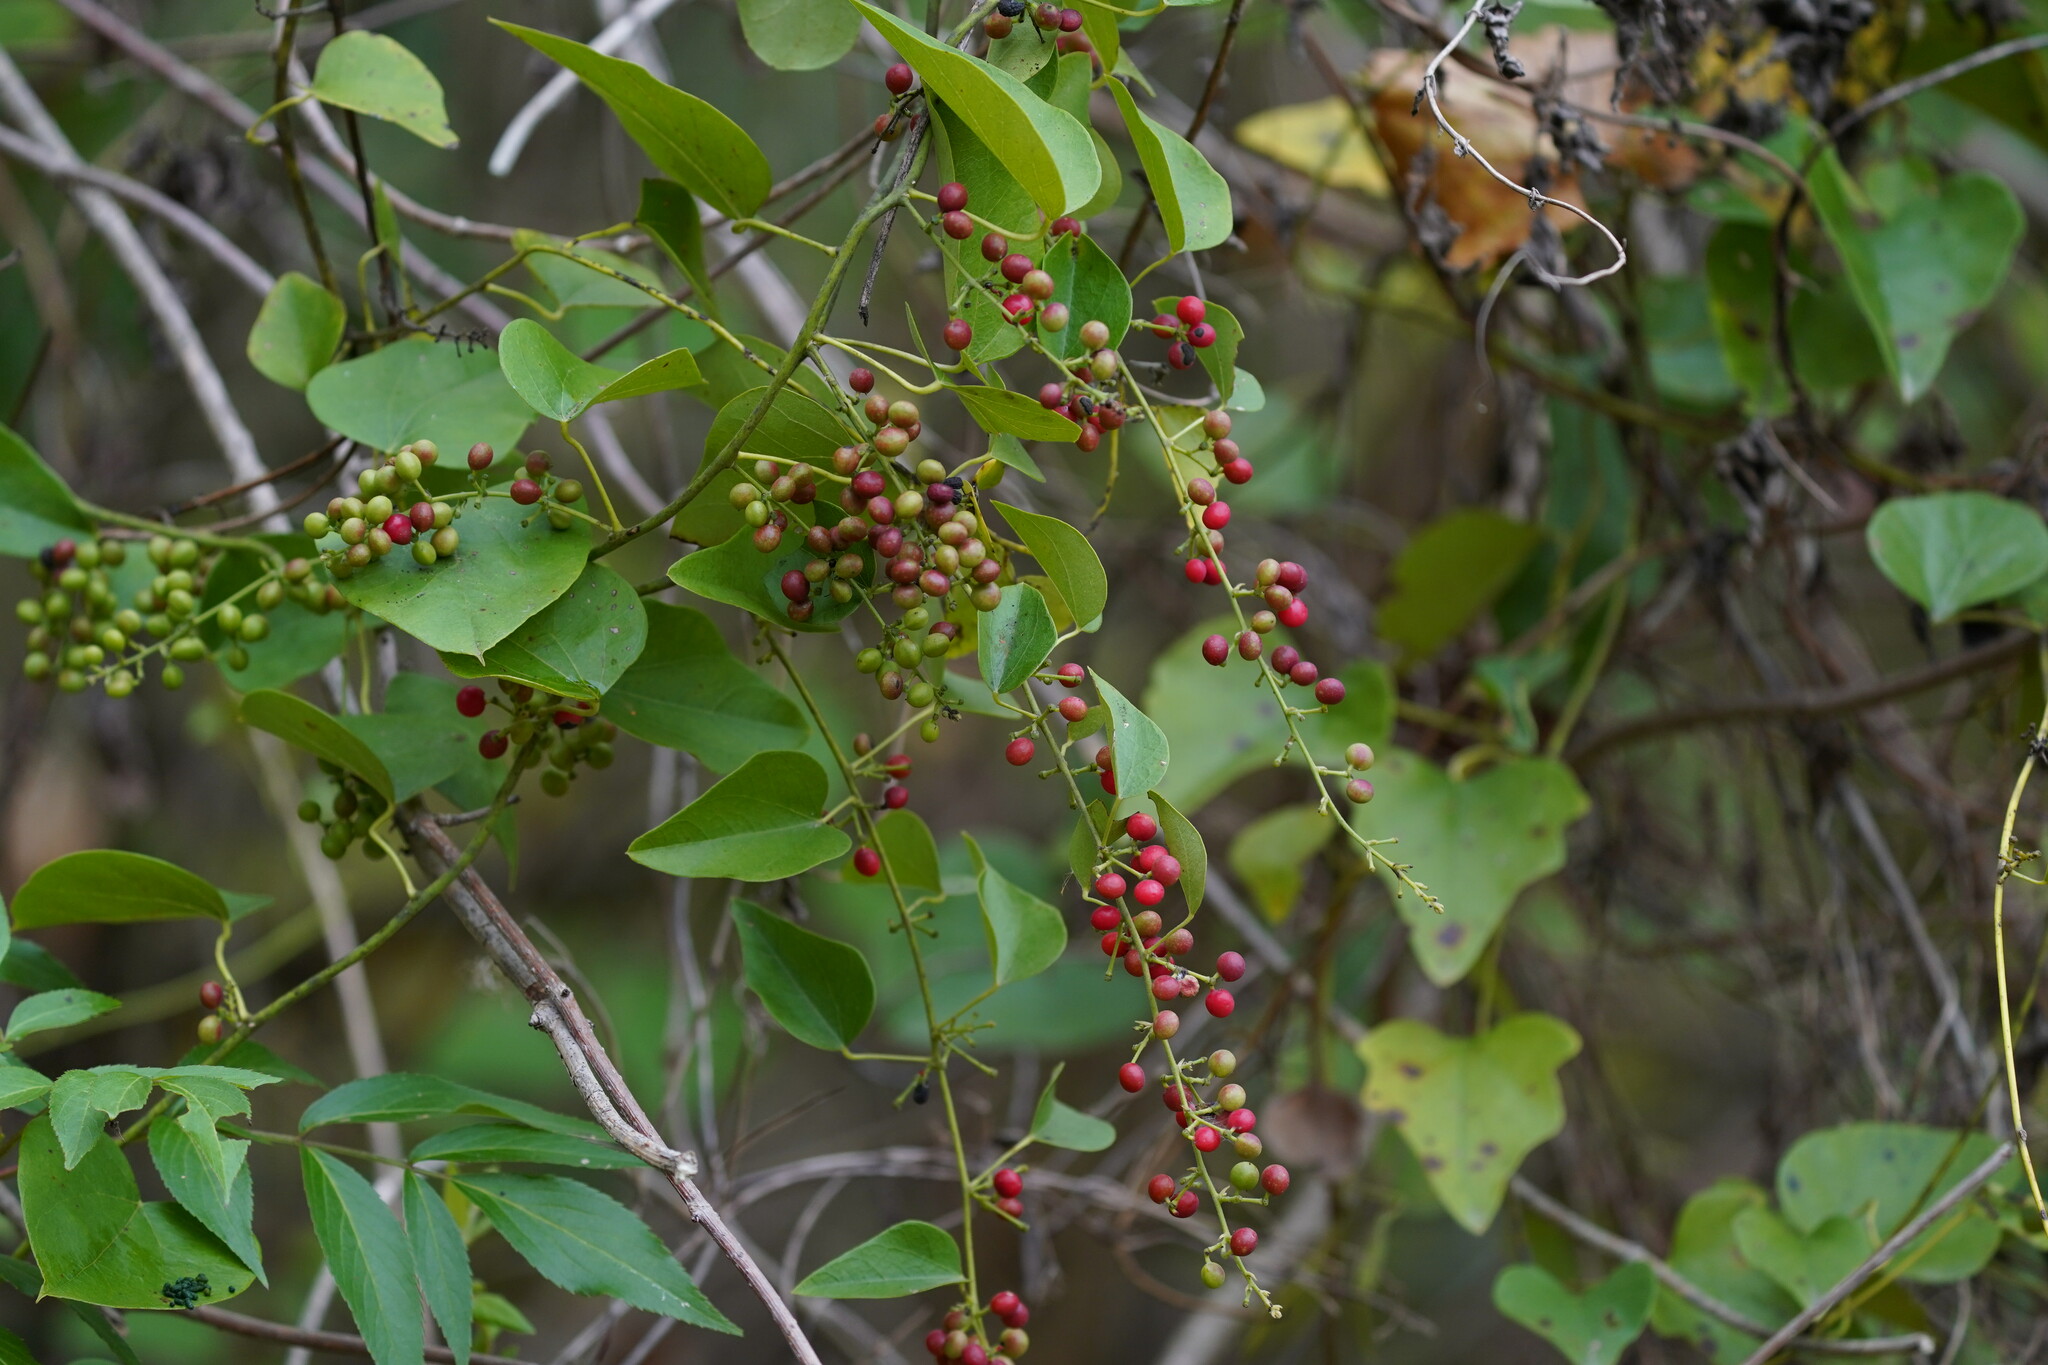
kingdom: Plantae
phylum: Tracheophyta
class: Magnoliopsida
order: Ranunculales
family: Menispermaceae
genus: Cocculus
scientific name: Cocculus carolinus
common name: Carolina moonseed
